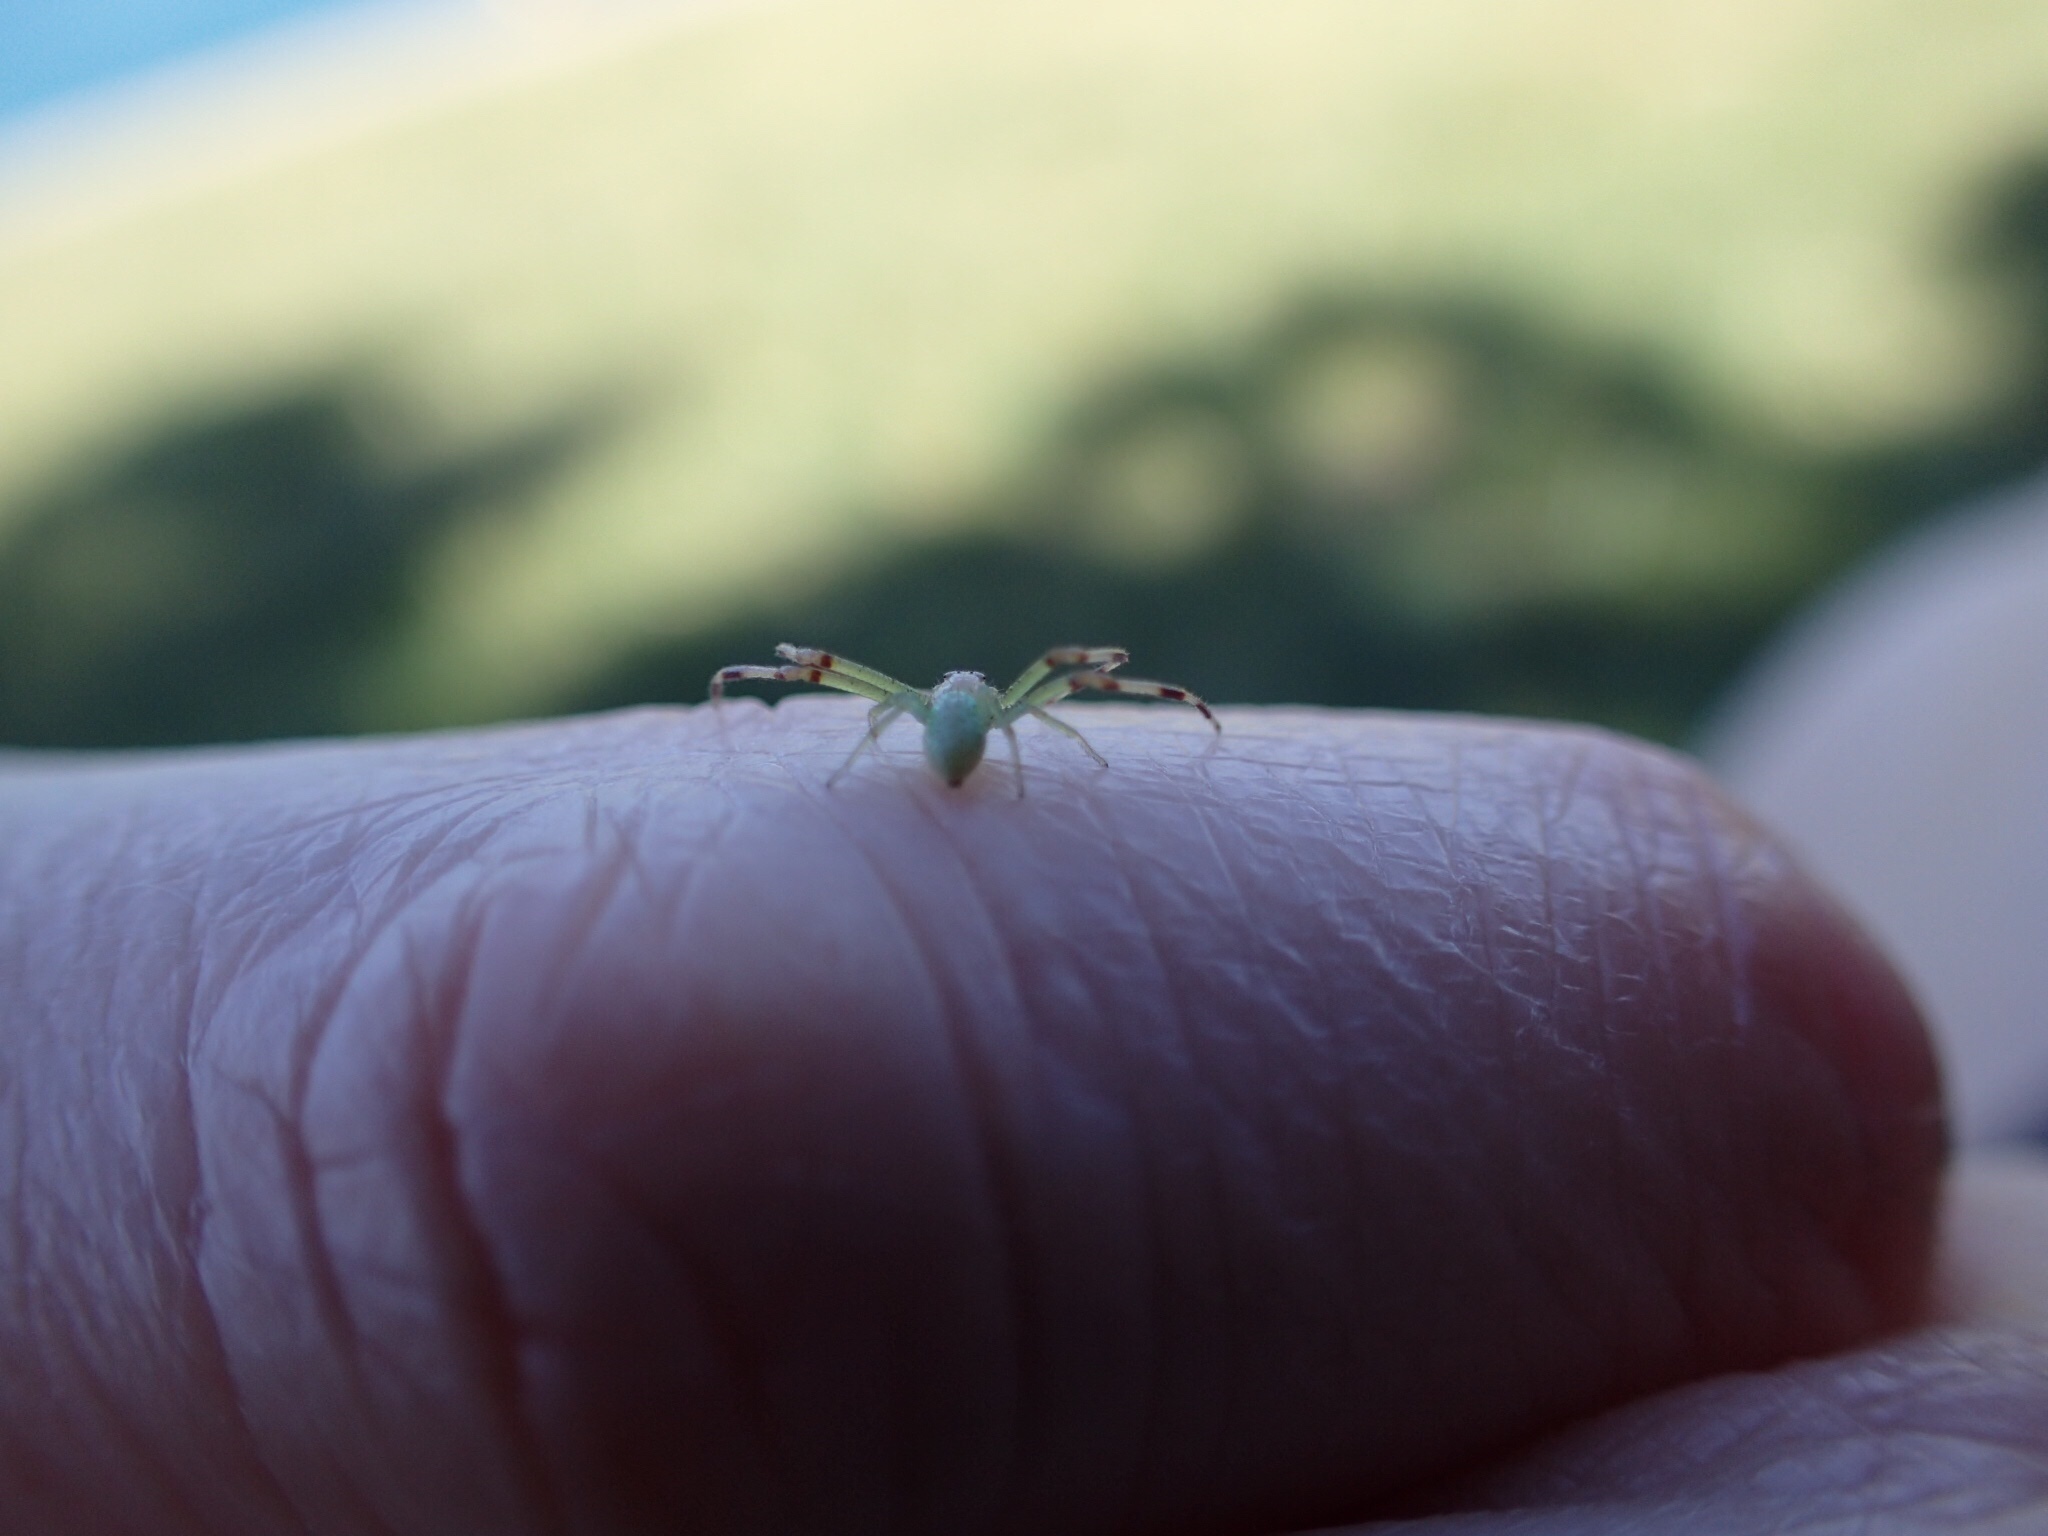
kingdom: Animalia
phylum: Arthropoda
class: Arachnida
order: Araneae
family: Thomisidae
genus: Misumessus
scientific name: Misumessus oblongus
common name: American green crab spider
